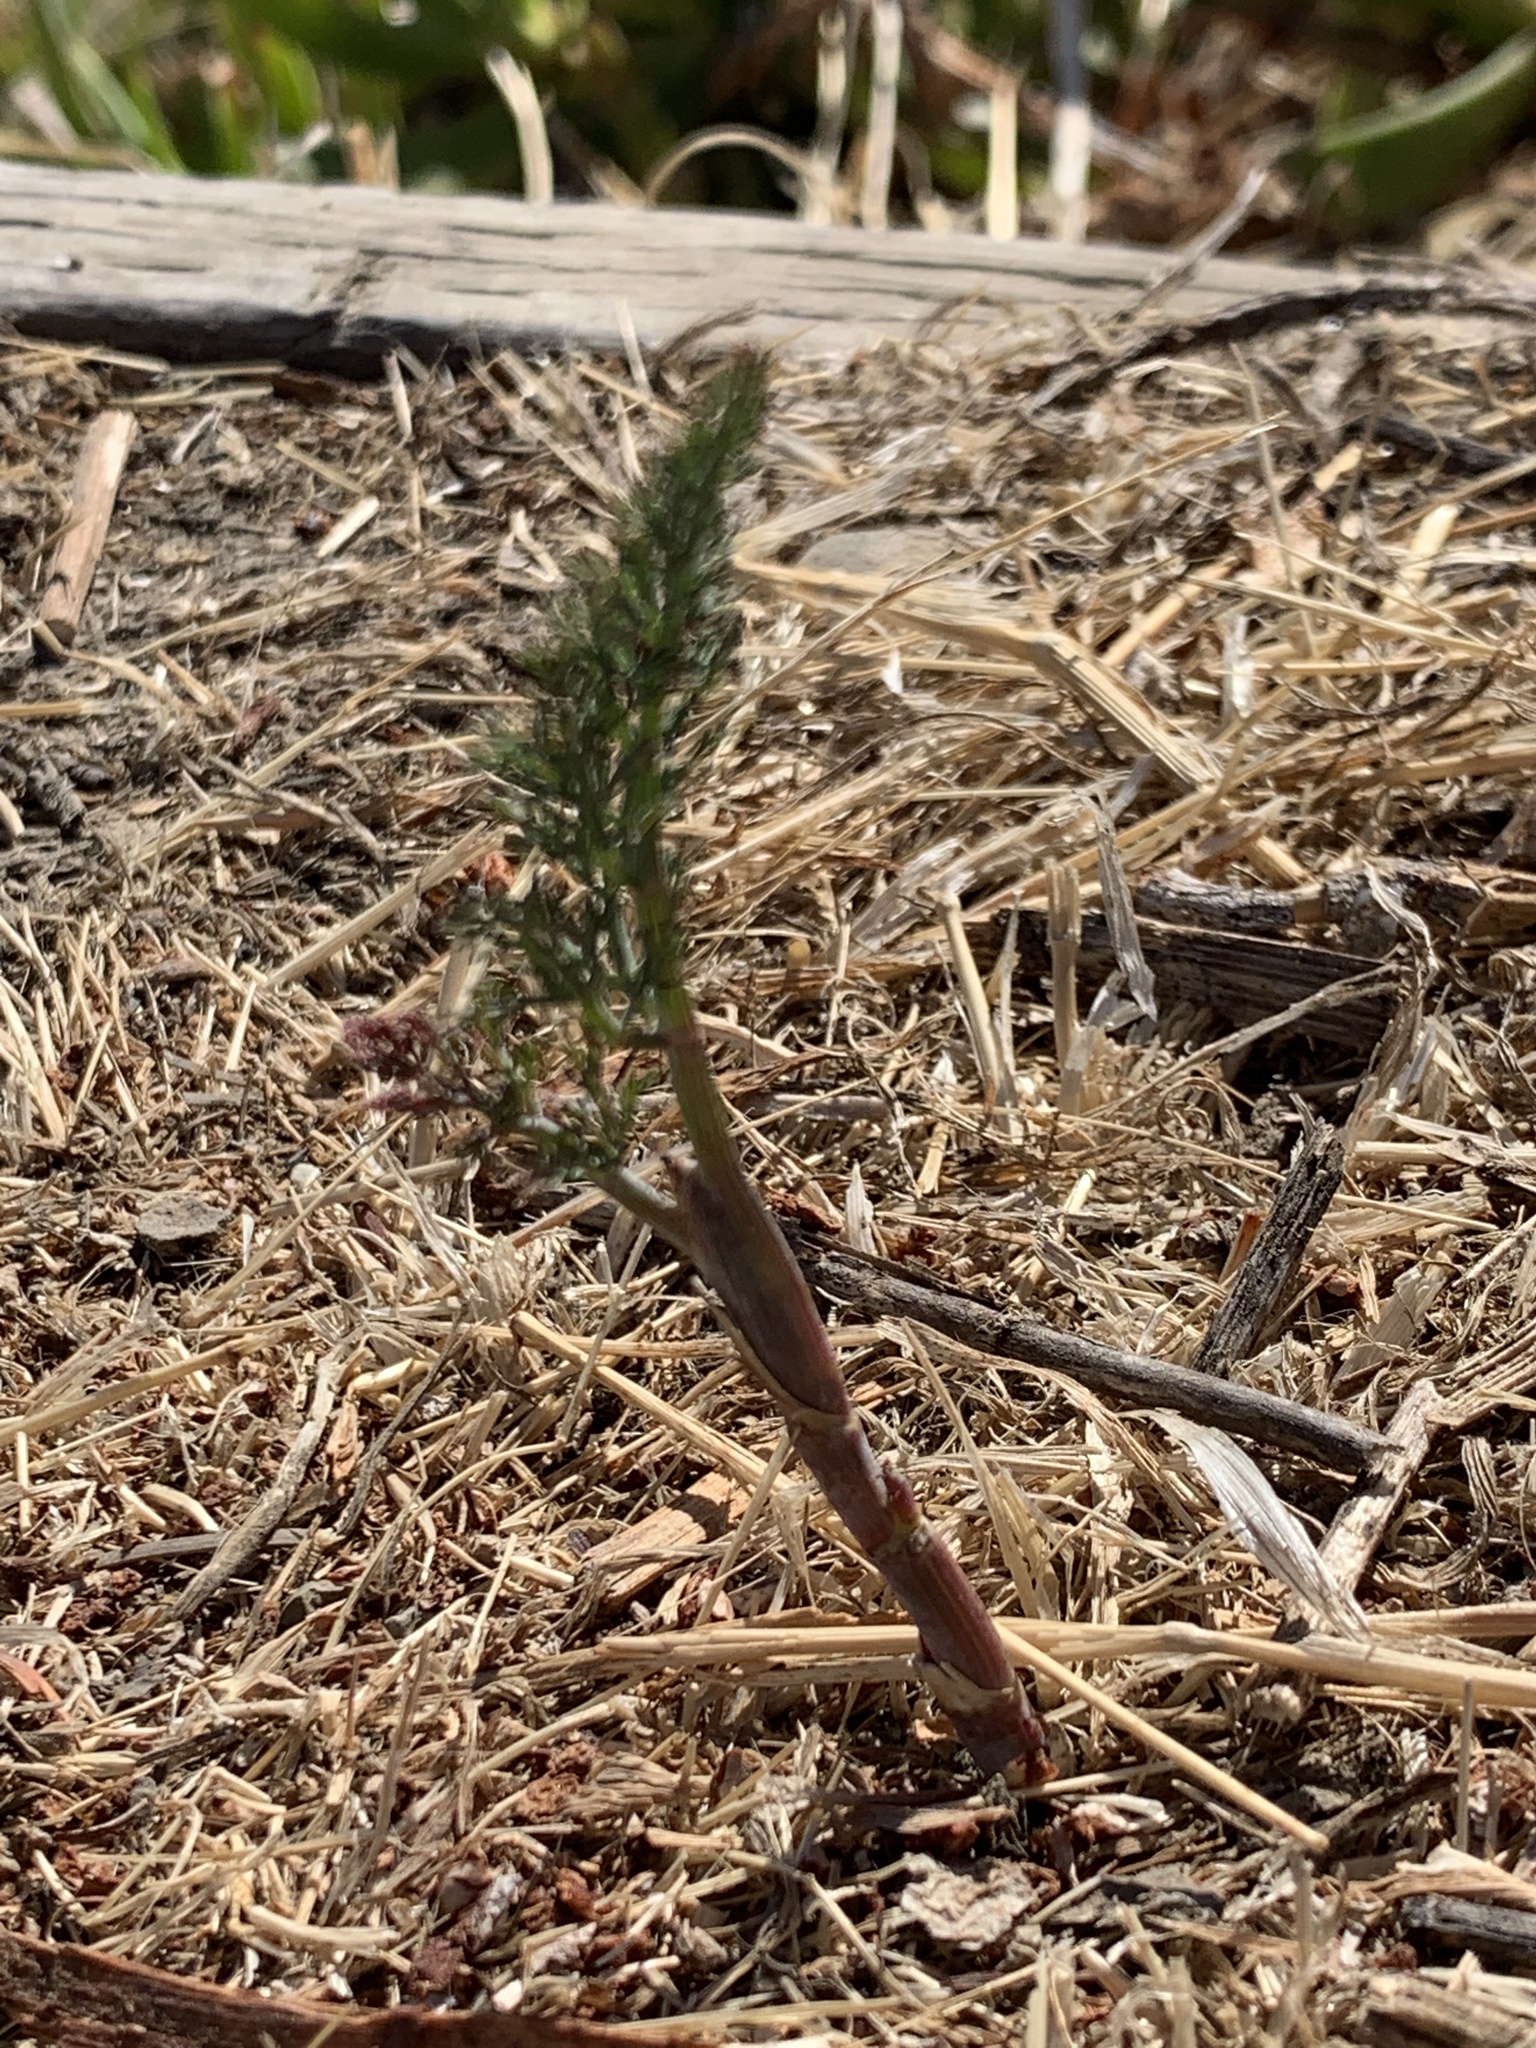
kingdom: Plantae
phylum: Tracheophyta
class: Magnoliopsida
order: Apiales
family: Apiaceae
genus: Foeniculum
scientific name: Foeniculum vulgare
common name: Fennel
